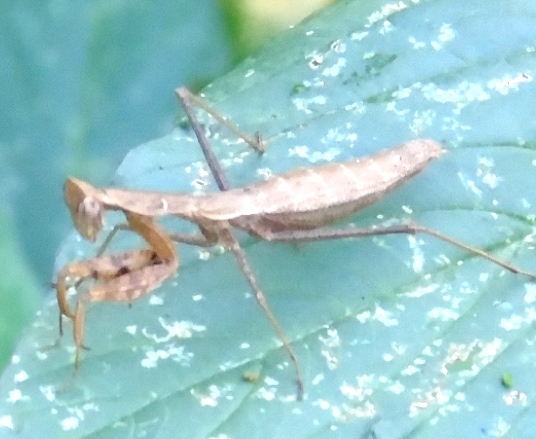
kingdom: Animalia
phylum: Arthropoda
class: Insecta
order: Mantodea
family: Amelidae
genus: Yersinia
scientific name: Yersinia mexicana
